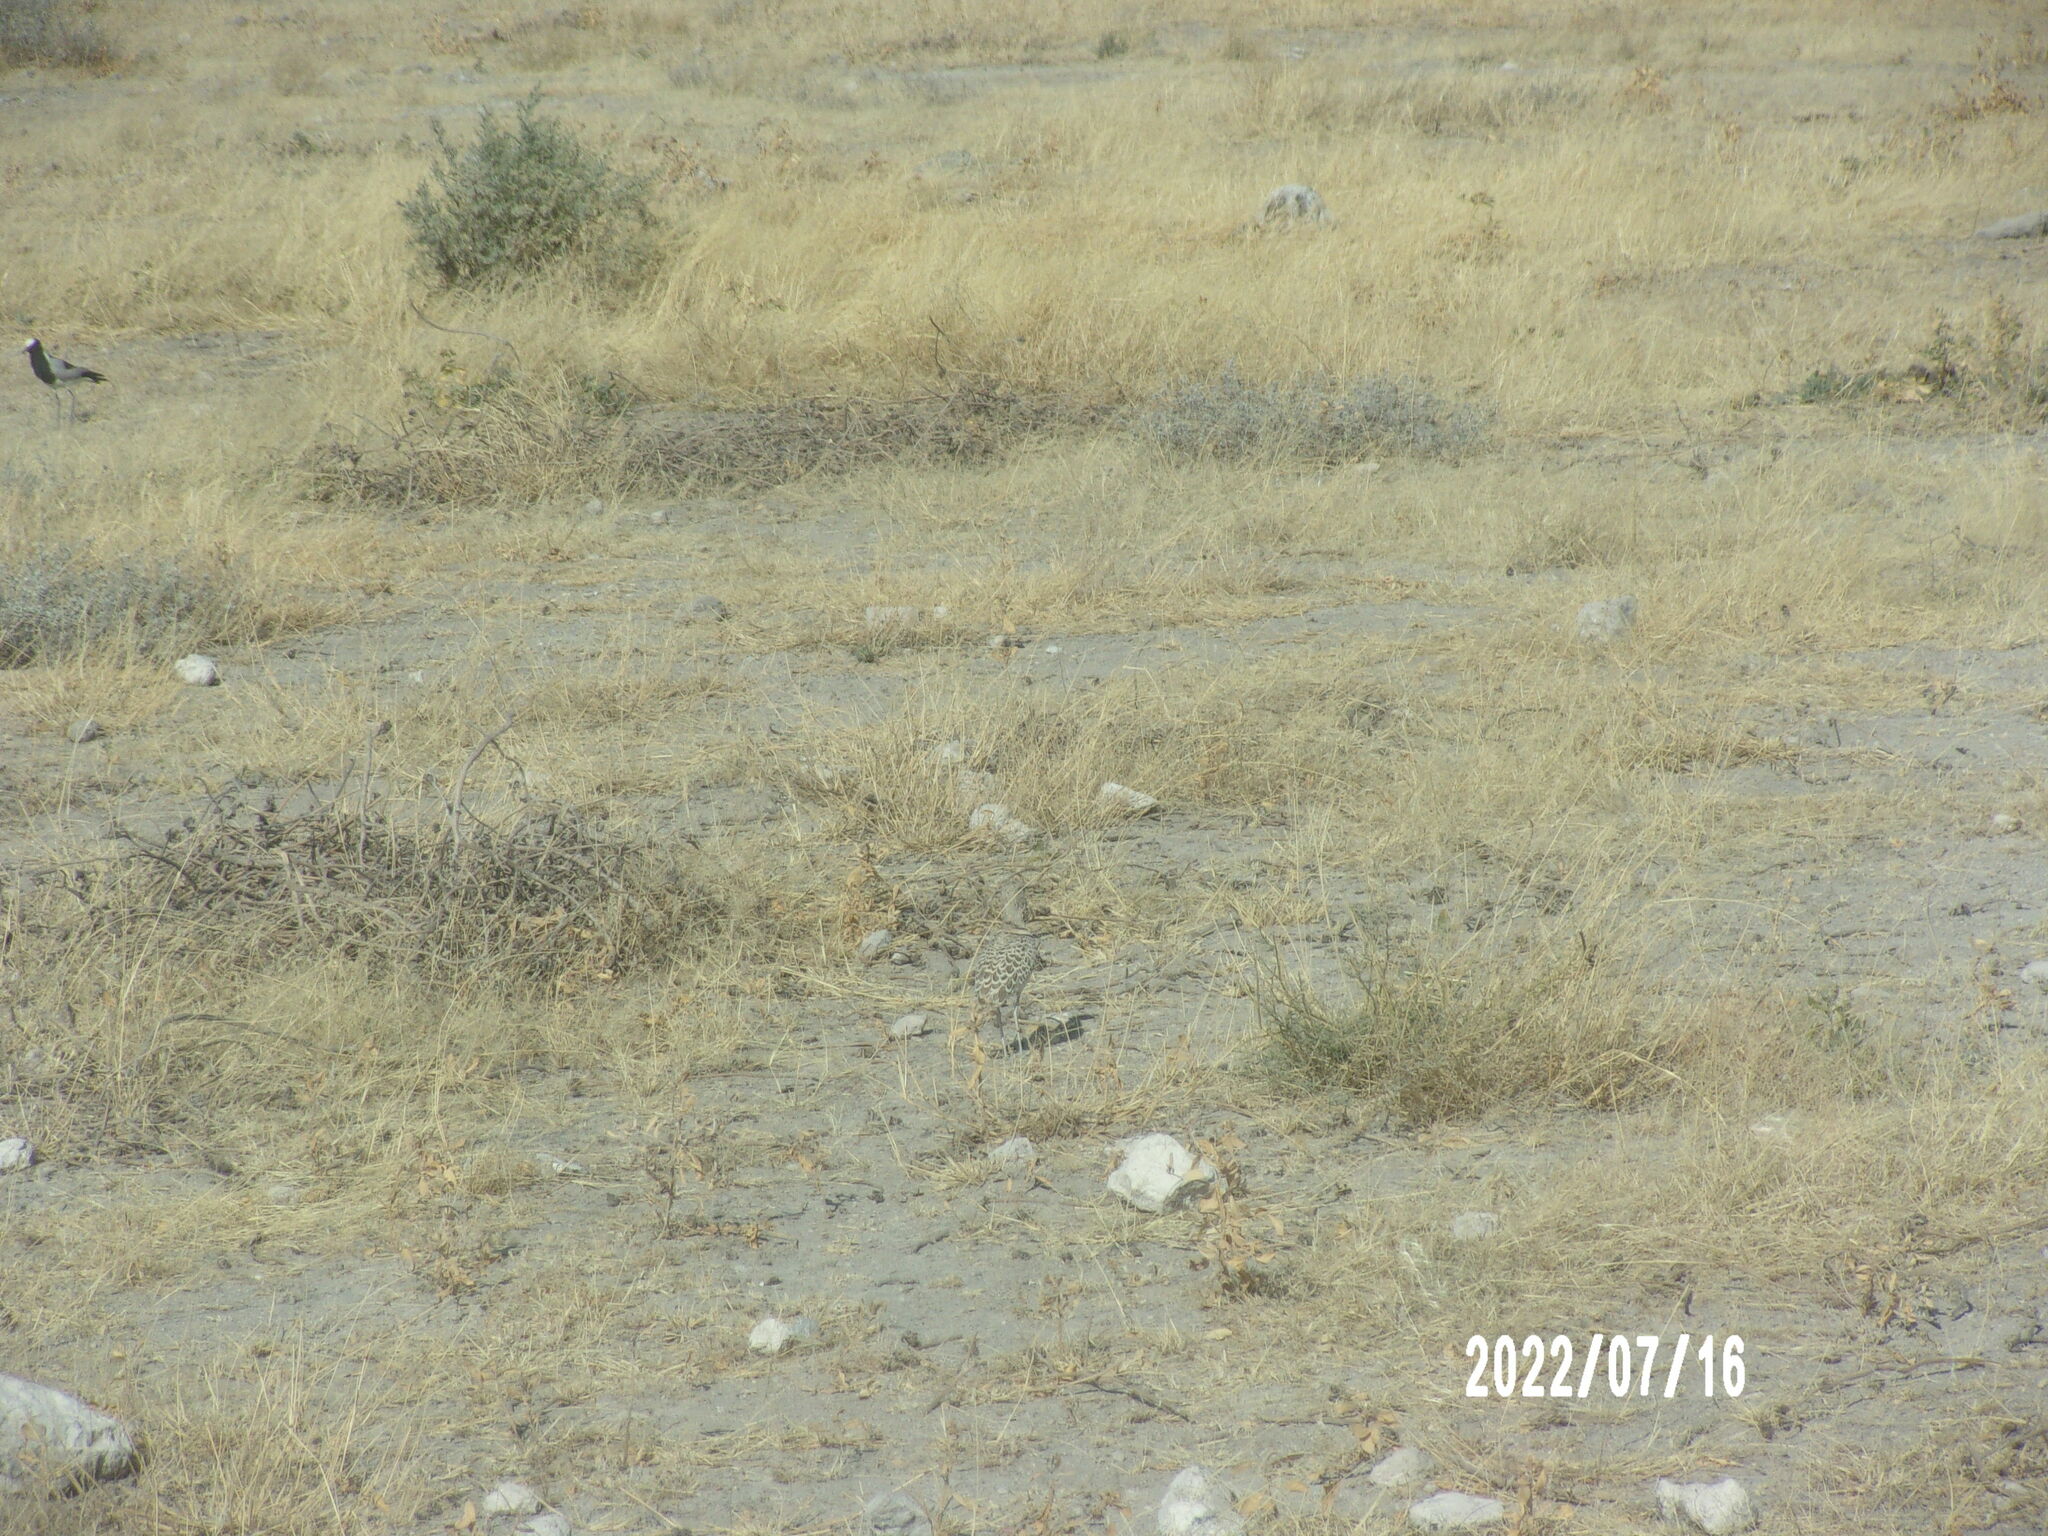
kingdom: Animalia
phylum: Chordata
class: Aves
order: Charadriiformes
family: Glareolidae
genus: Rhinoptilus
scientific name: Rhinoptilus africanus
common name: Double-banded courser
